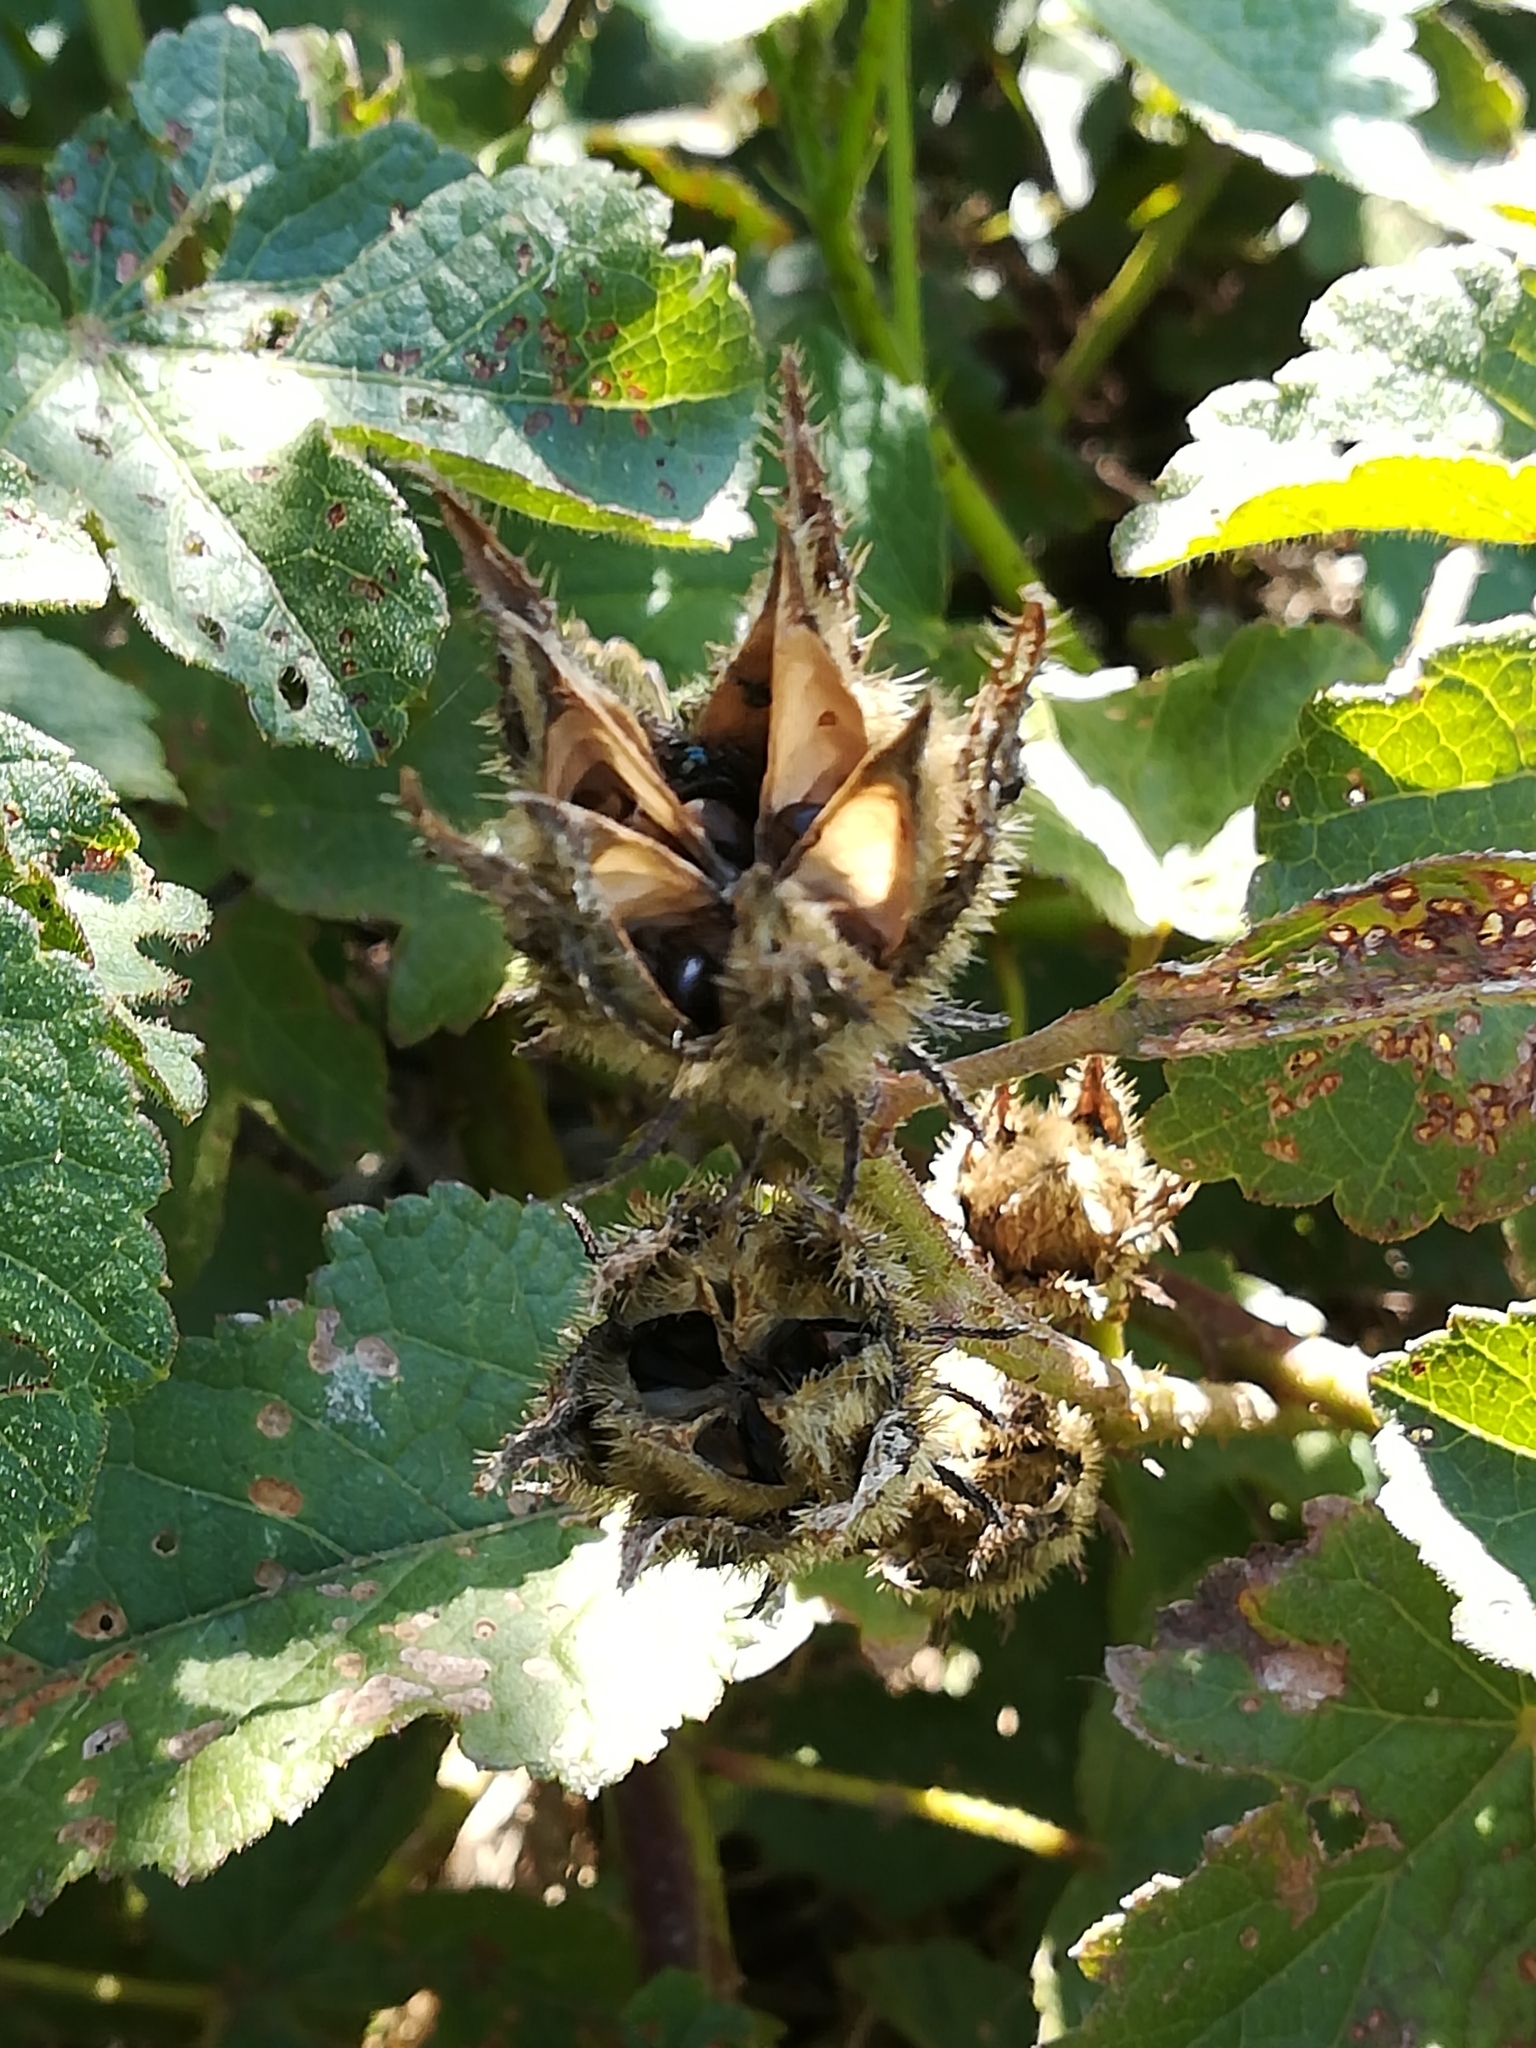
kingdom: Plantae
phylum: Tracheophyta
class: Magnoliopsida
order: Malvales
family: Malvaceae
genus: Hibiscus
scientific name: Hibiscus trionum
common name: Bladder ketmia
